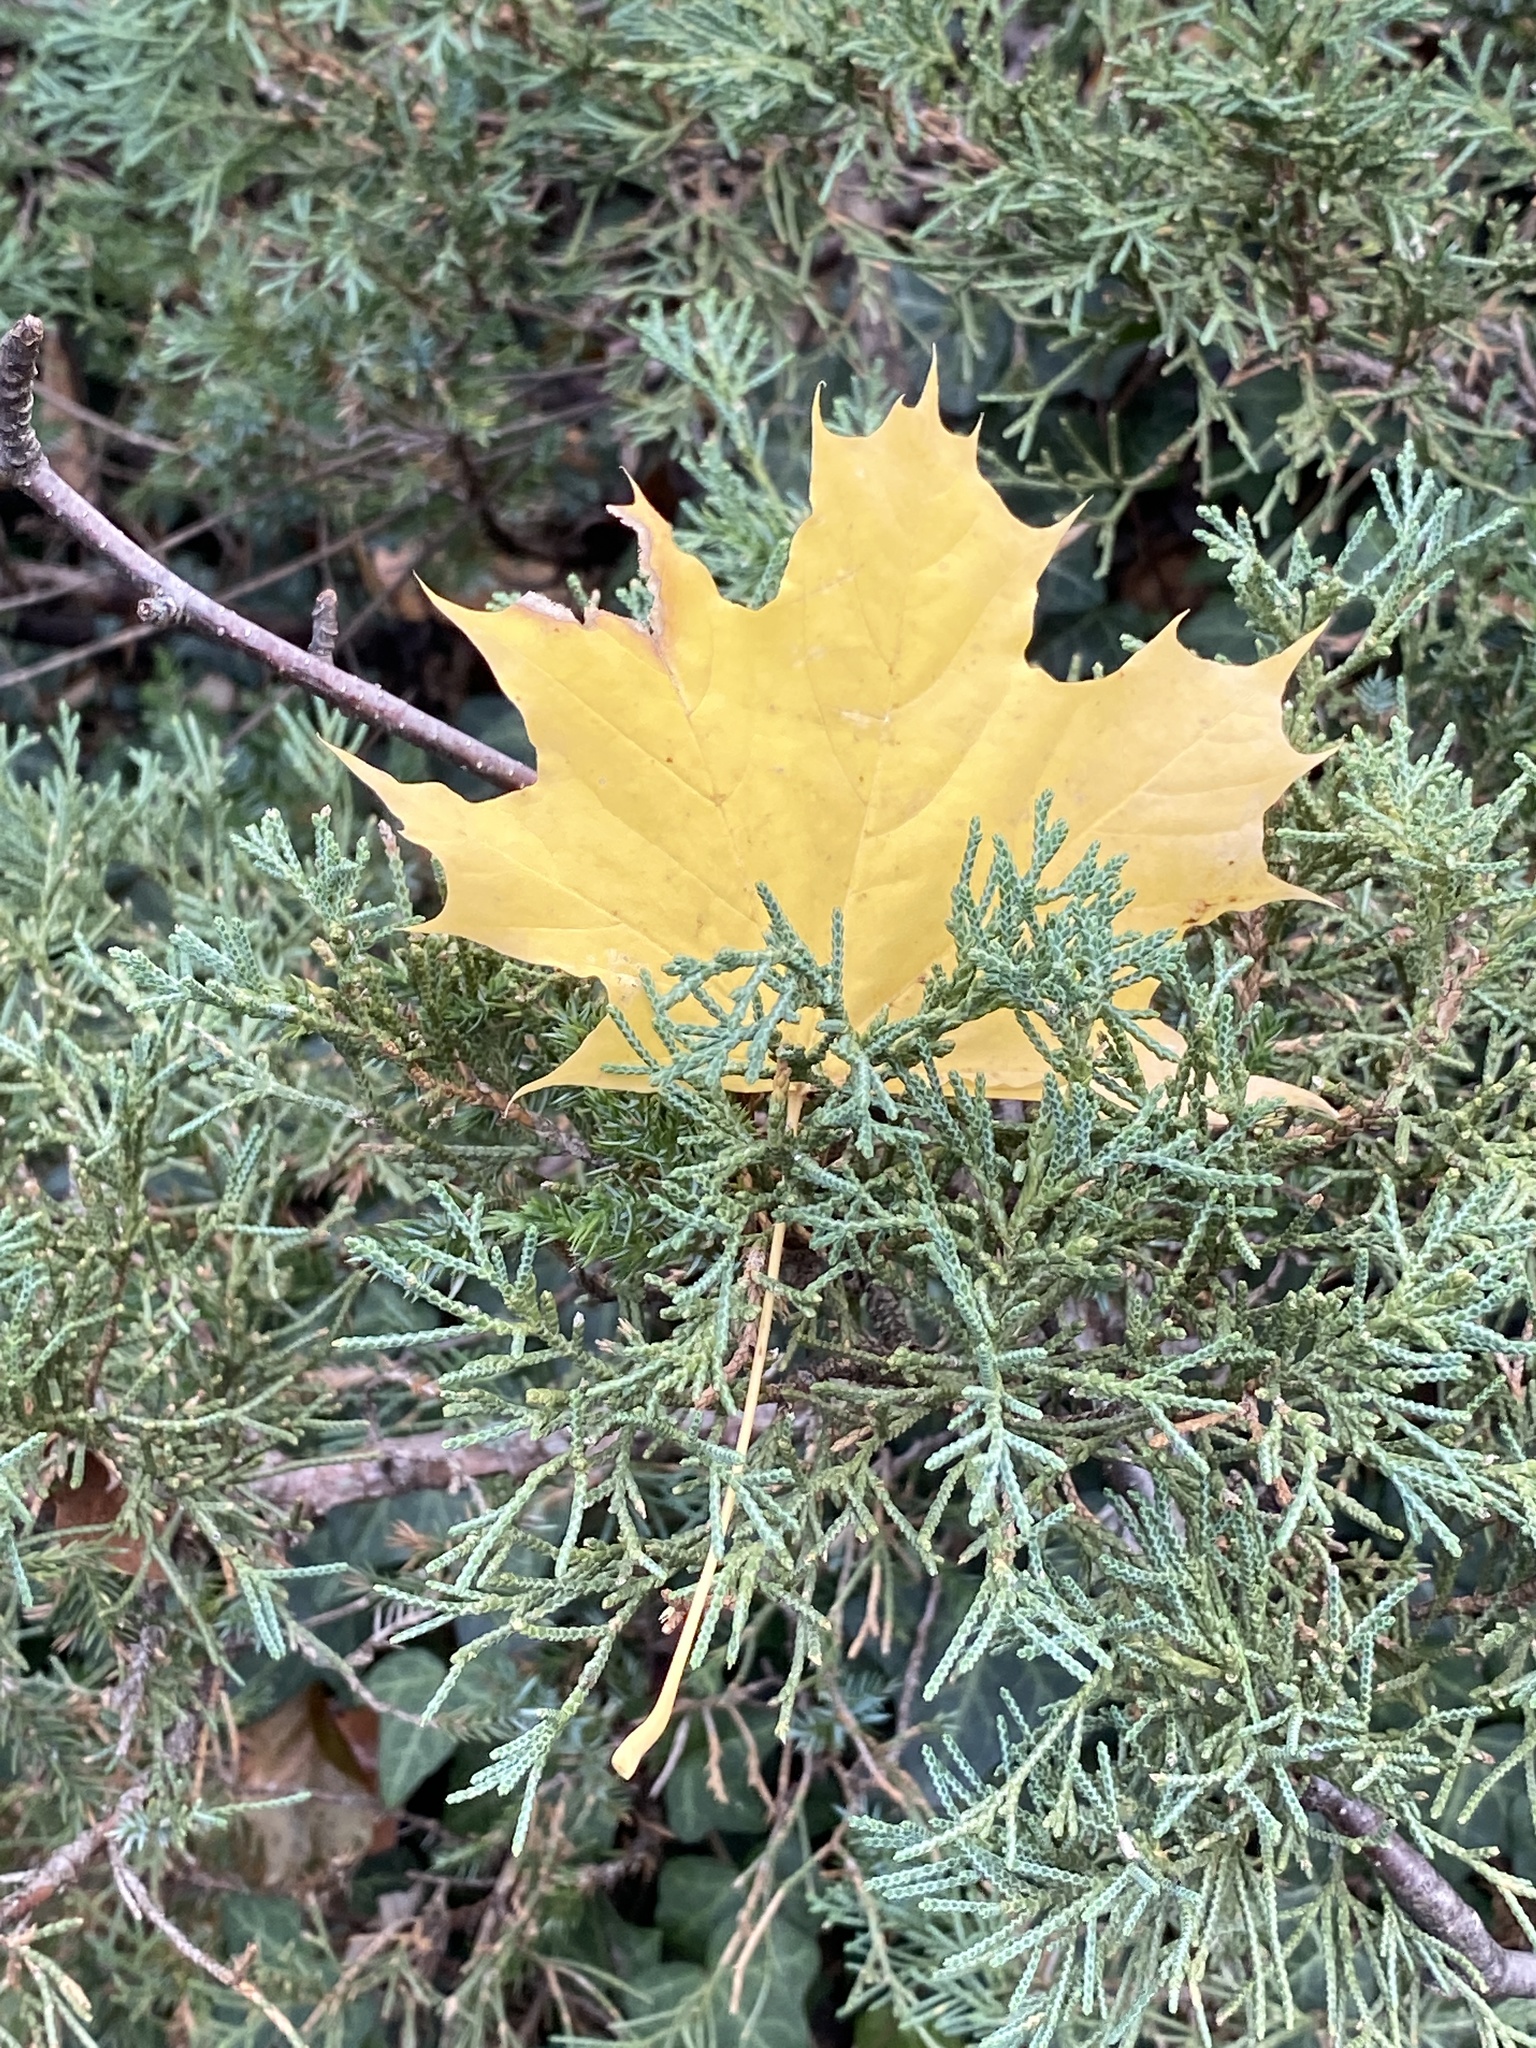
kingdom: Plantae
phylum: Tracheophyta
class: Magnoliopsida
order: Sapindales
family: Sapindaceae
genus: Acer
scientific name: Acer platanoides
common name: Norway maple
